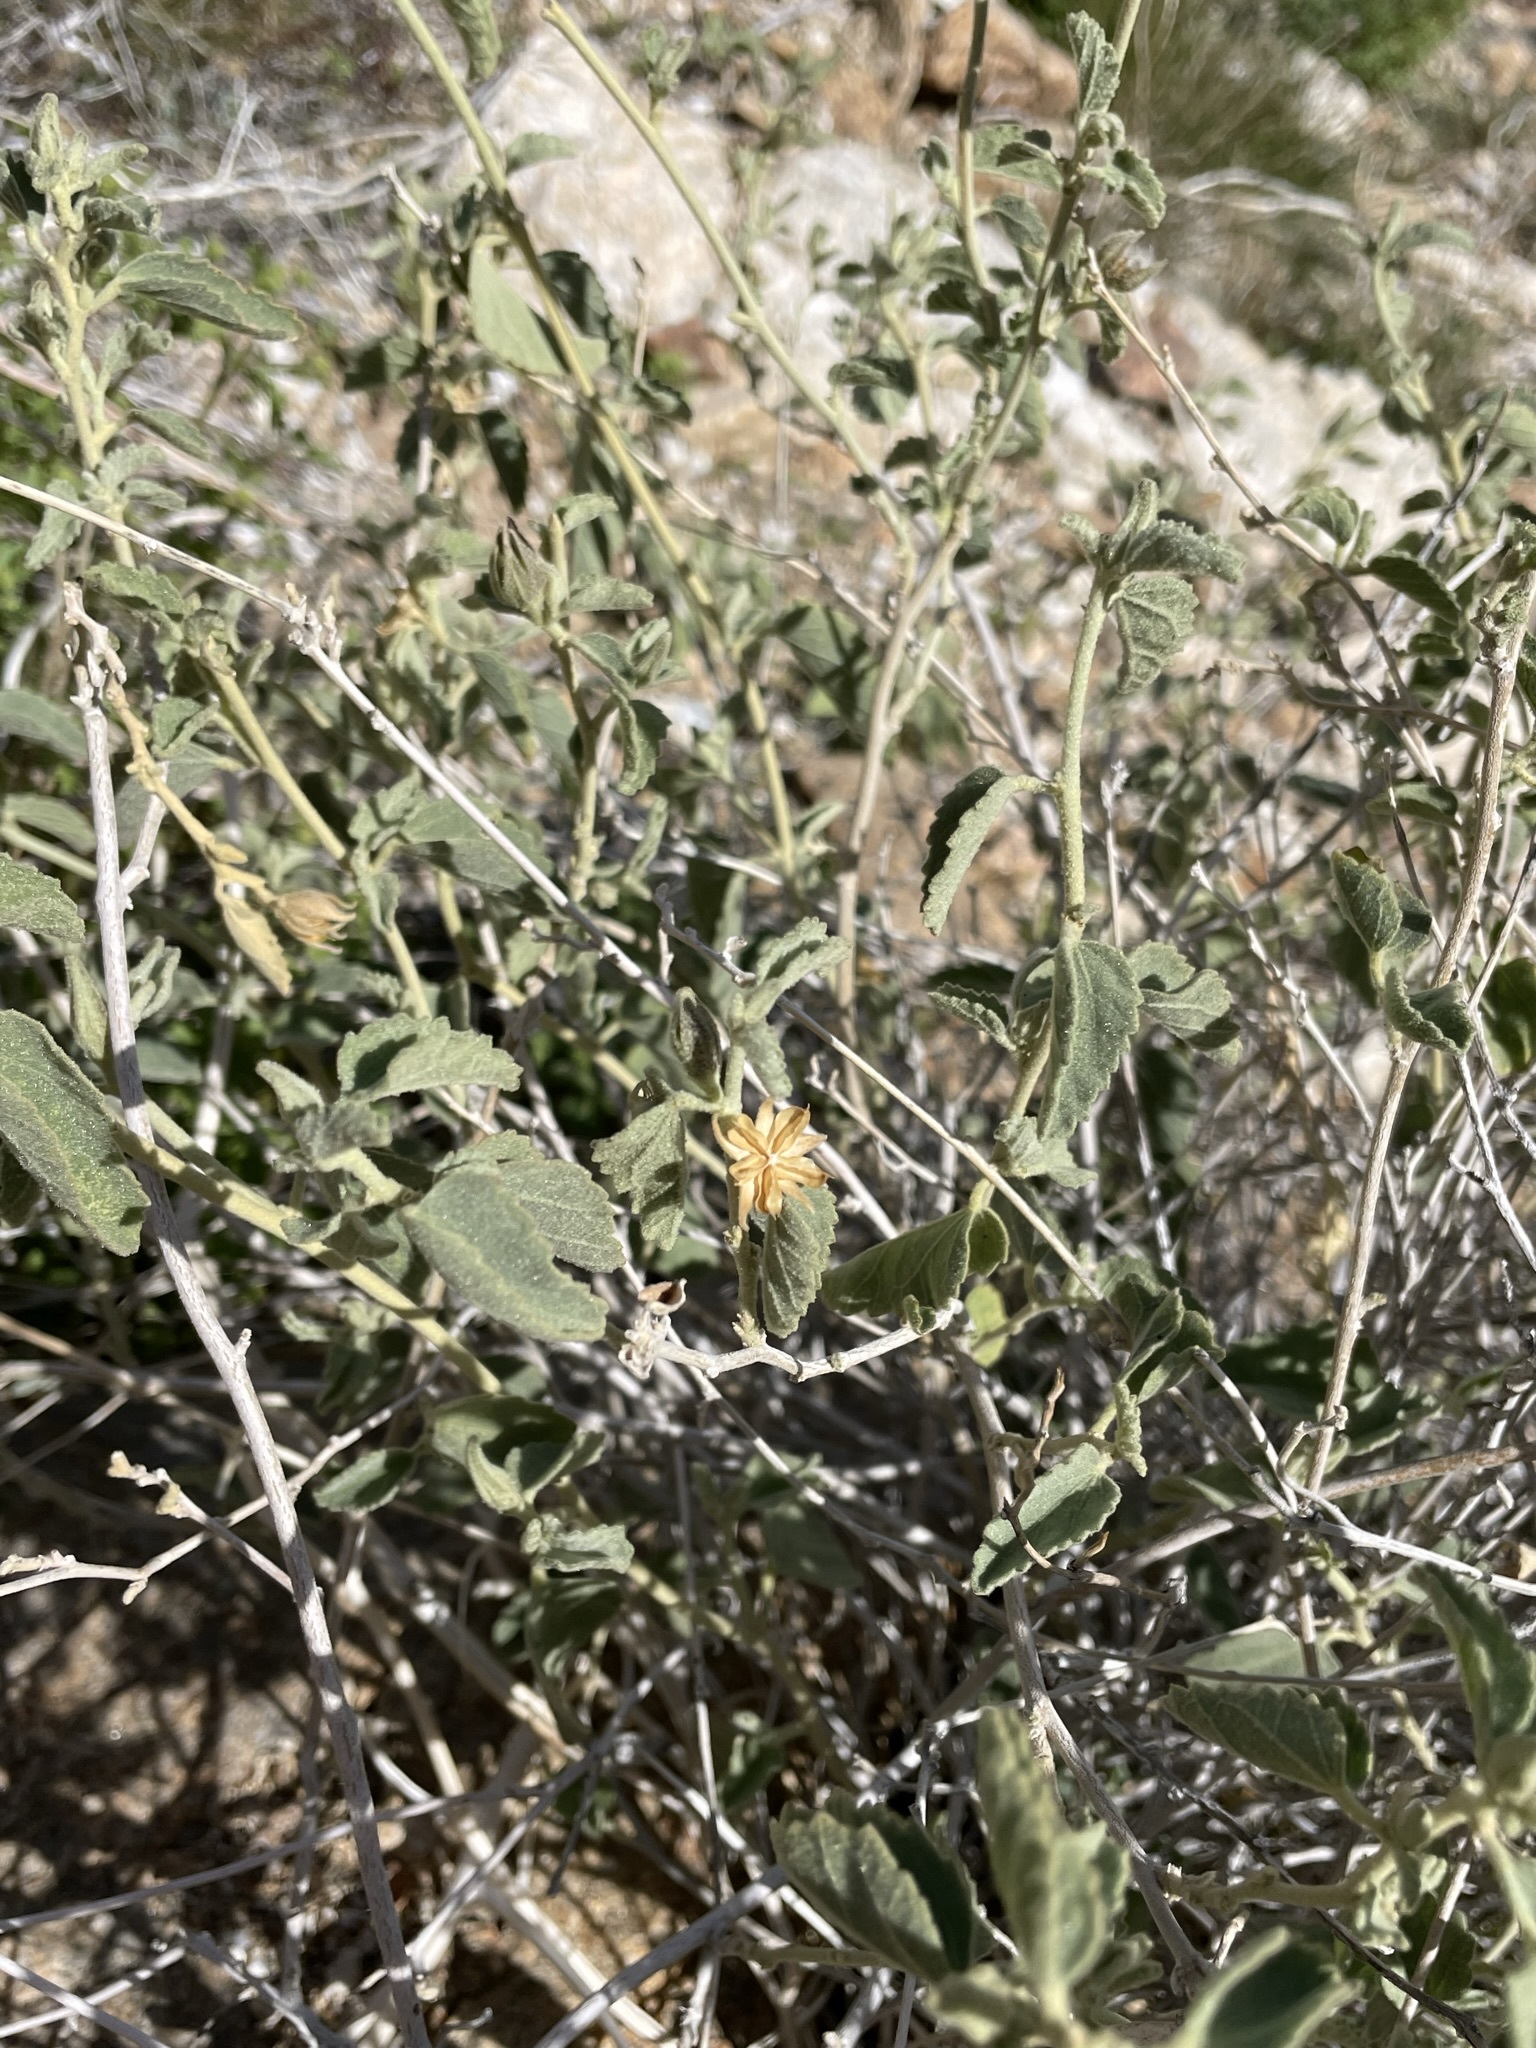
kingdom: Plantae
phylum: Tracheophyta
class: Magnoliopsida
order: Malvales
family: Malvaceae
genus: Hibiscus
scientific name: Hibiscus denudatus
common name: Paleface
